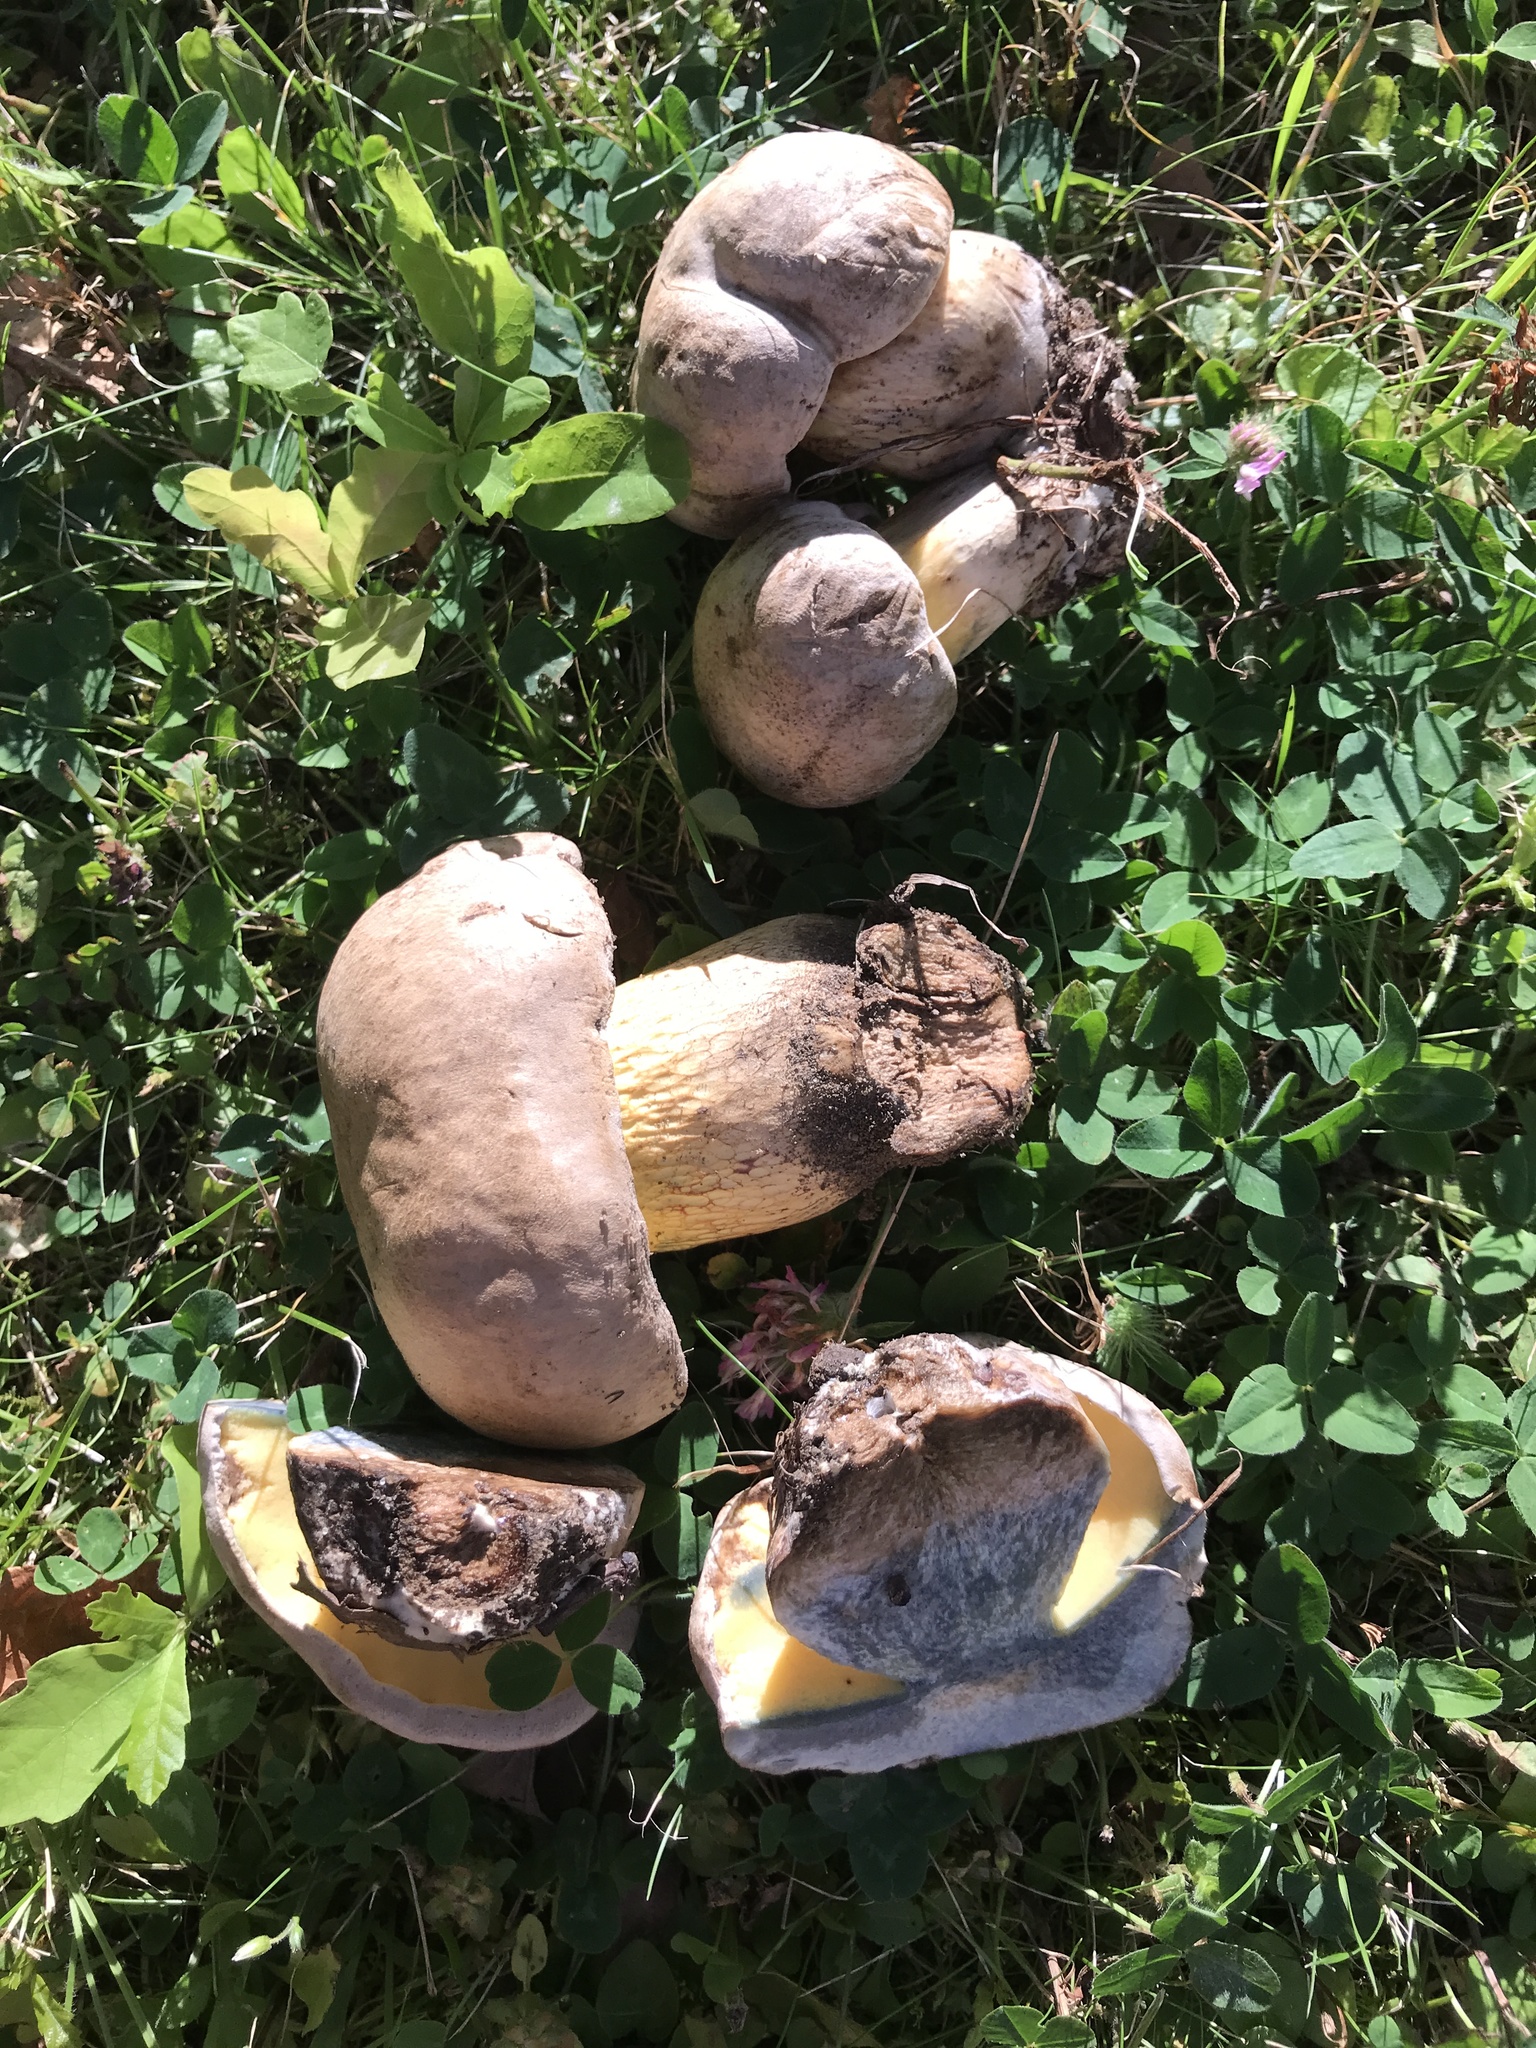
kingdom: Fungi
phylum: Basidiomycota
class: Agaricomycetes
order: Boletales
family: Boletaceae
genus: Caloboletus
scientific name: Caloboletus radicans
